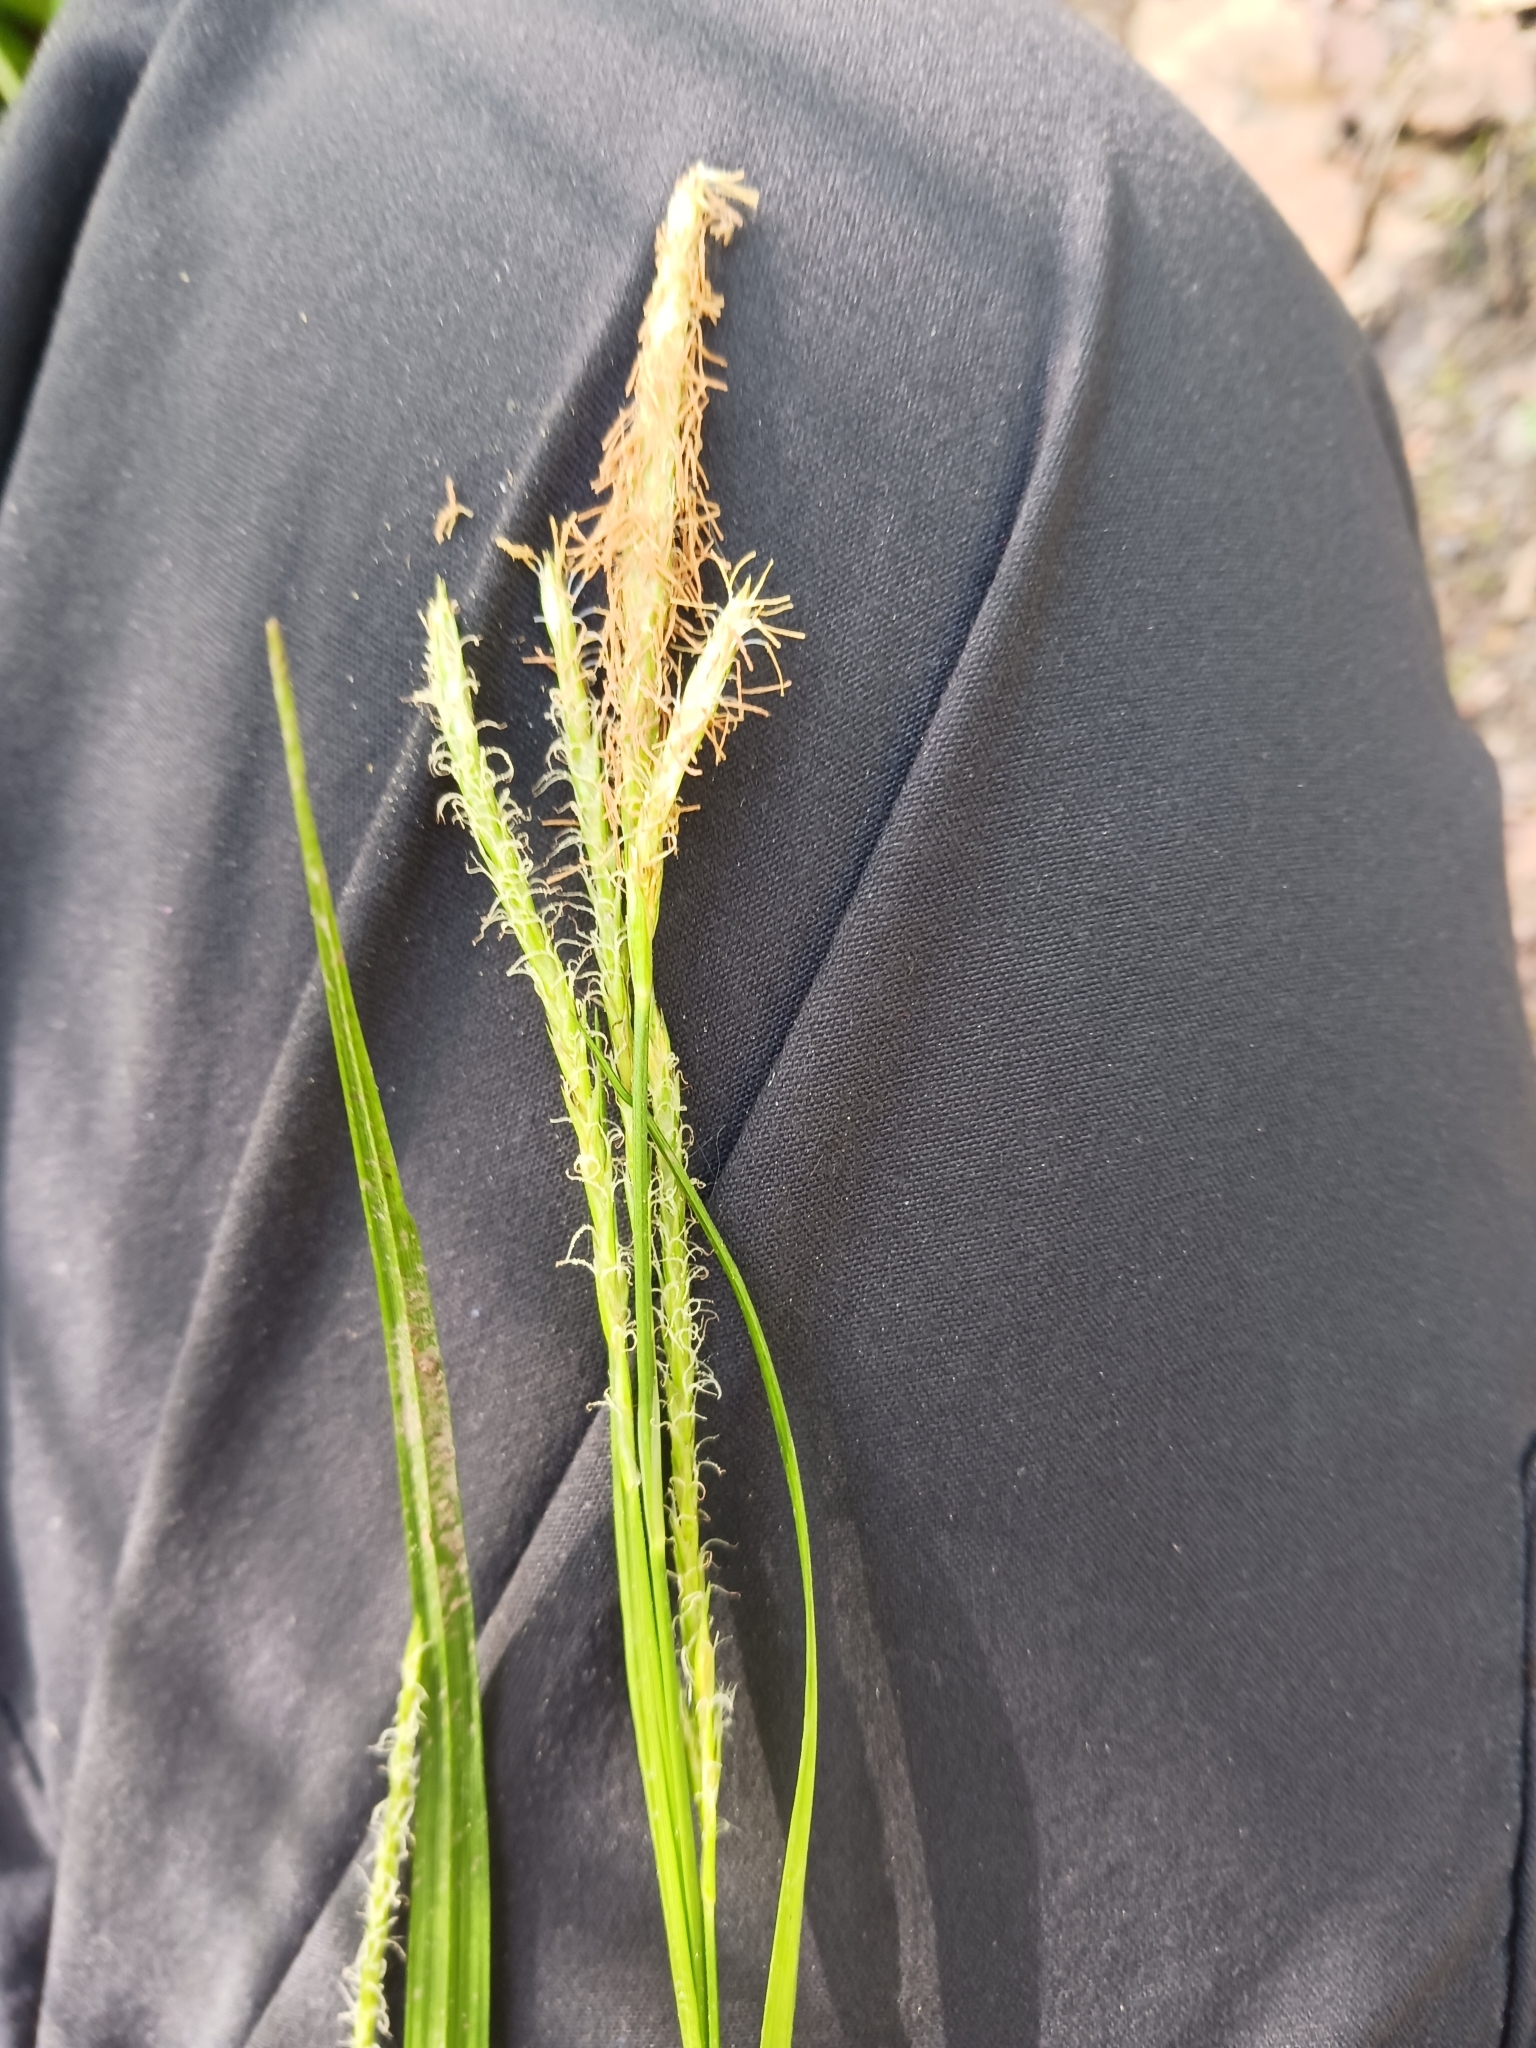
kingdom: Plantae
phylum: Tracheophyta
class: Liliopsida
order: Poales
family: Cyperaceae
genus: Carex
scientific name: Carex sylvatica
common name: Wood-sedge
